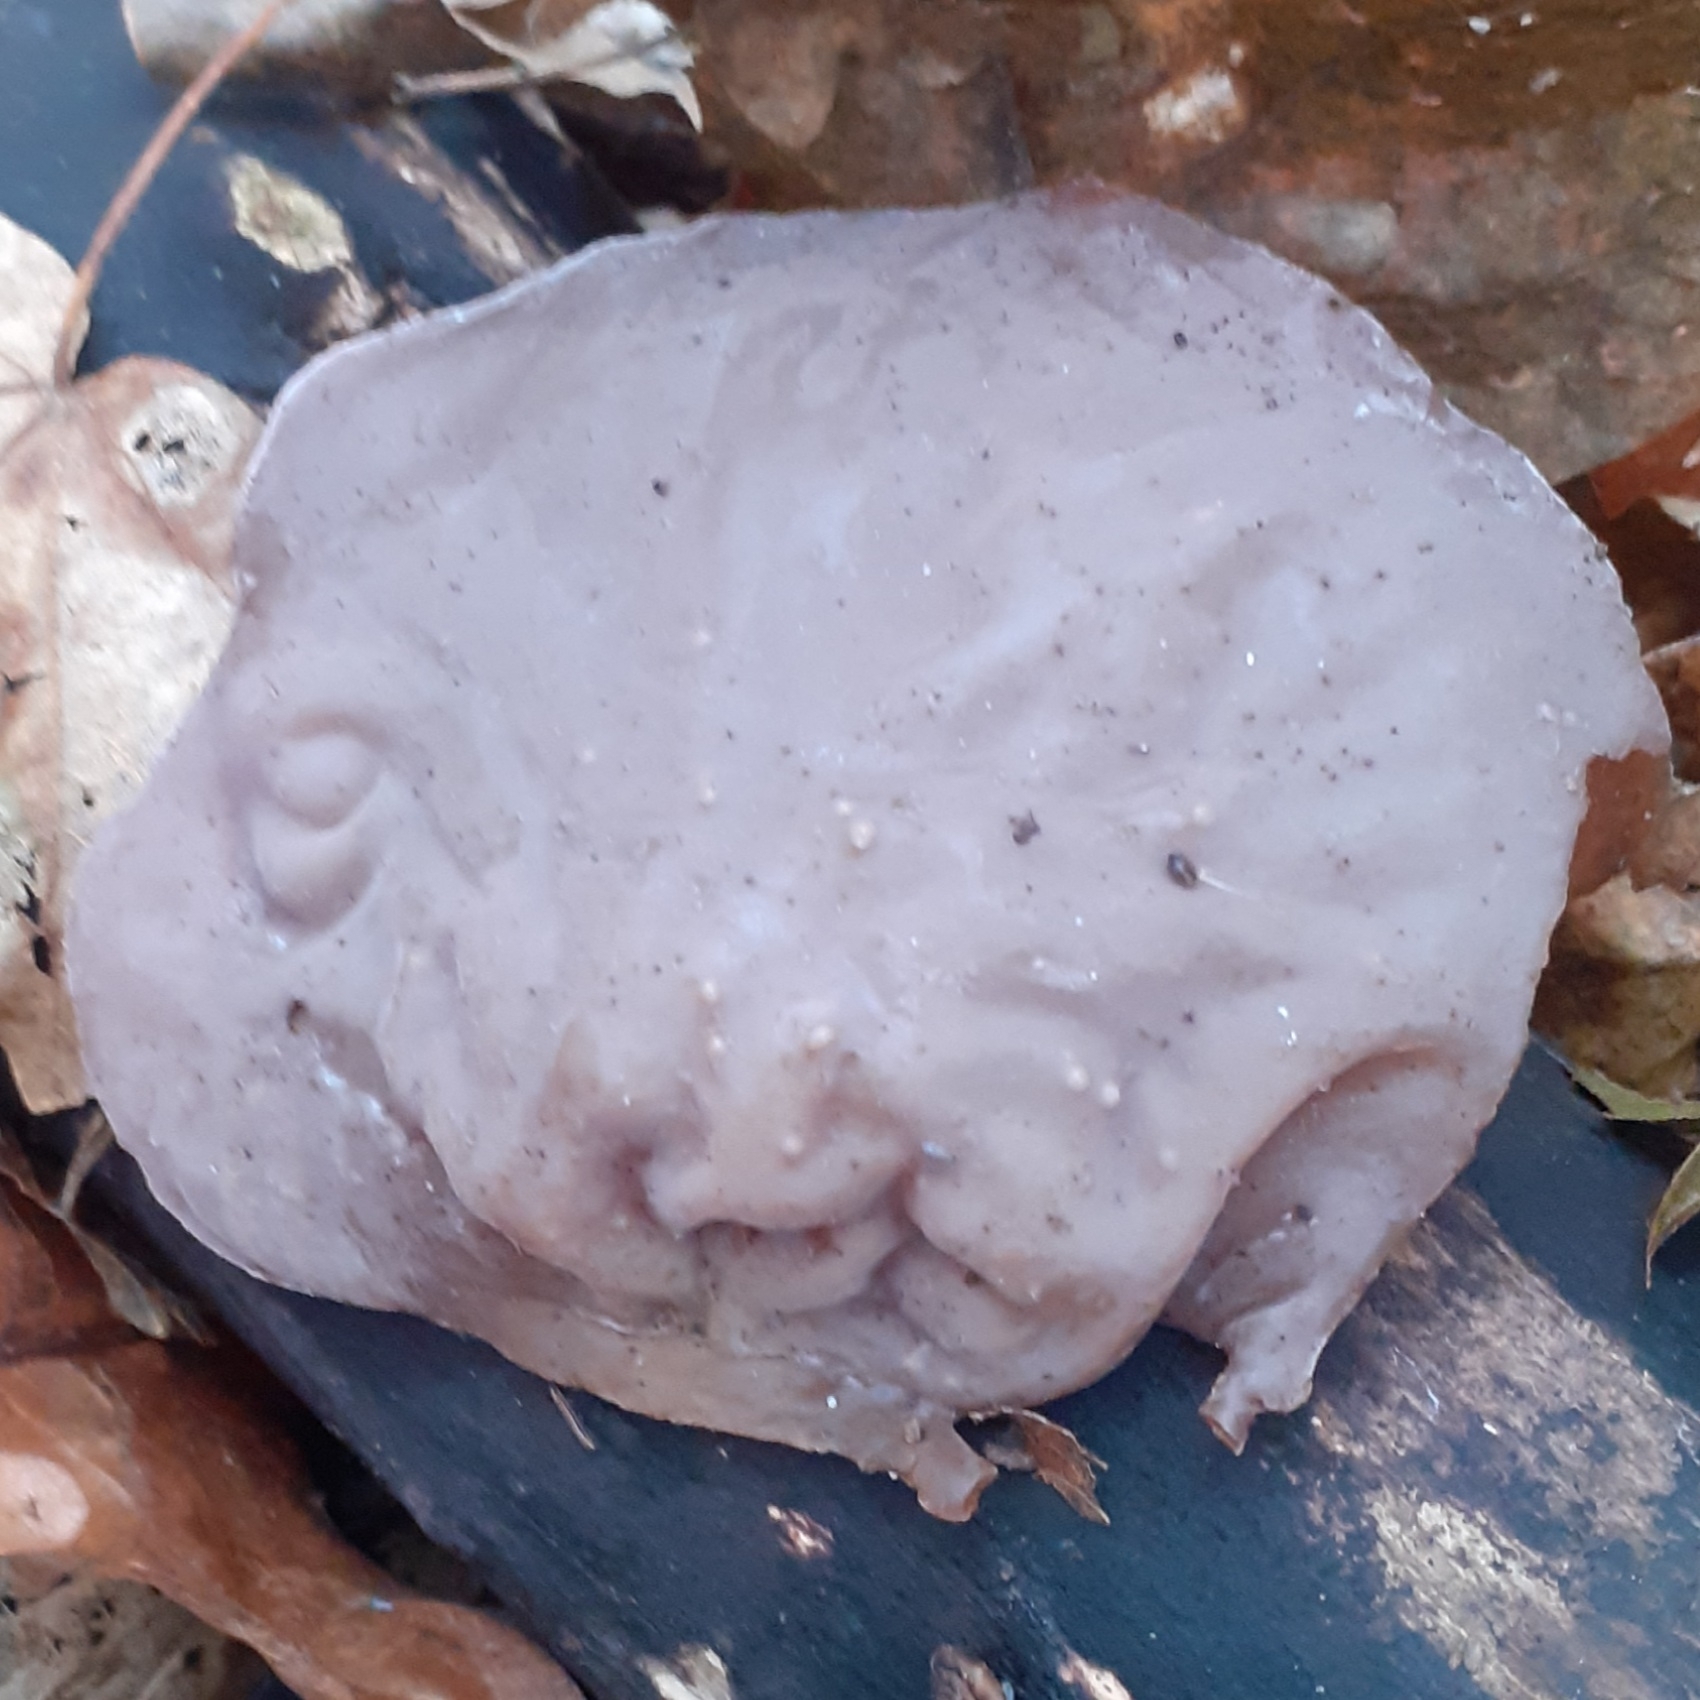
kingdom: Fungi
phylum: Basidiomycota
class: Agaricomycetes
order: Auriculariales
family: Auriculariaceae
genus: Auricularia
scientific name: Auricularia auricula-judae
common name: Jelly ear
